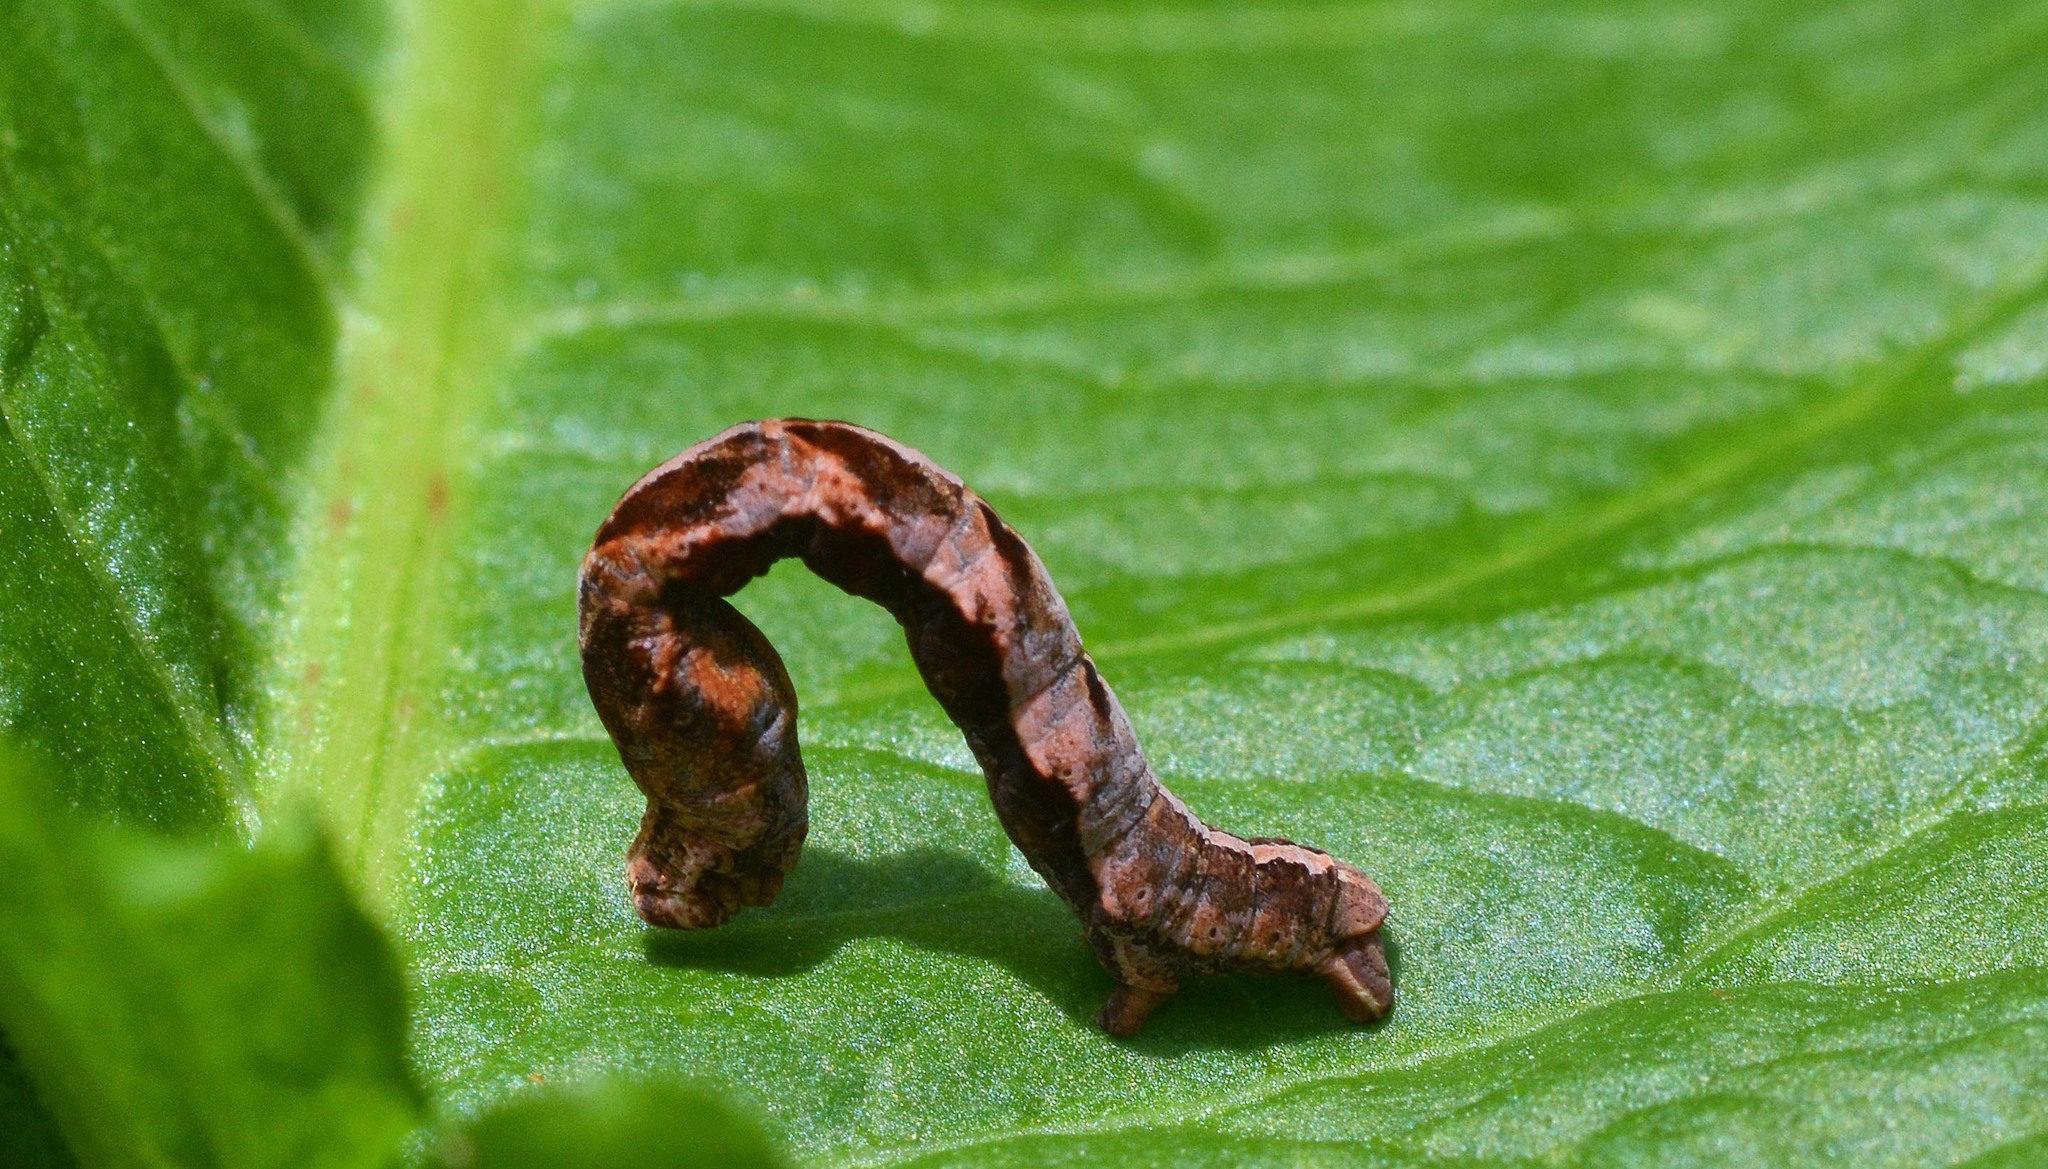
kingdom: Animalia
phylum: Arthropoda
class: Insecta
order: Lepidoptera
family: Geometridae
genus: Timandra
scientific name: Timandra comae
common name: Blood-vein
